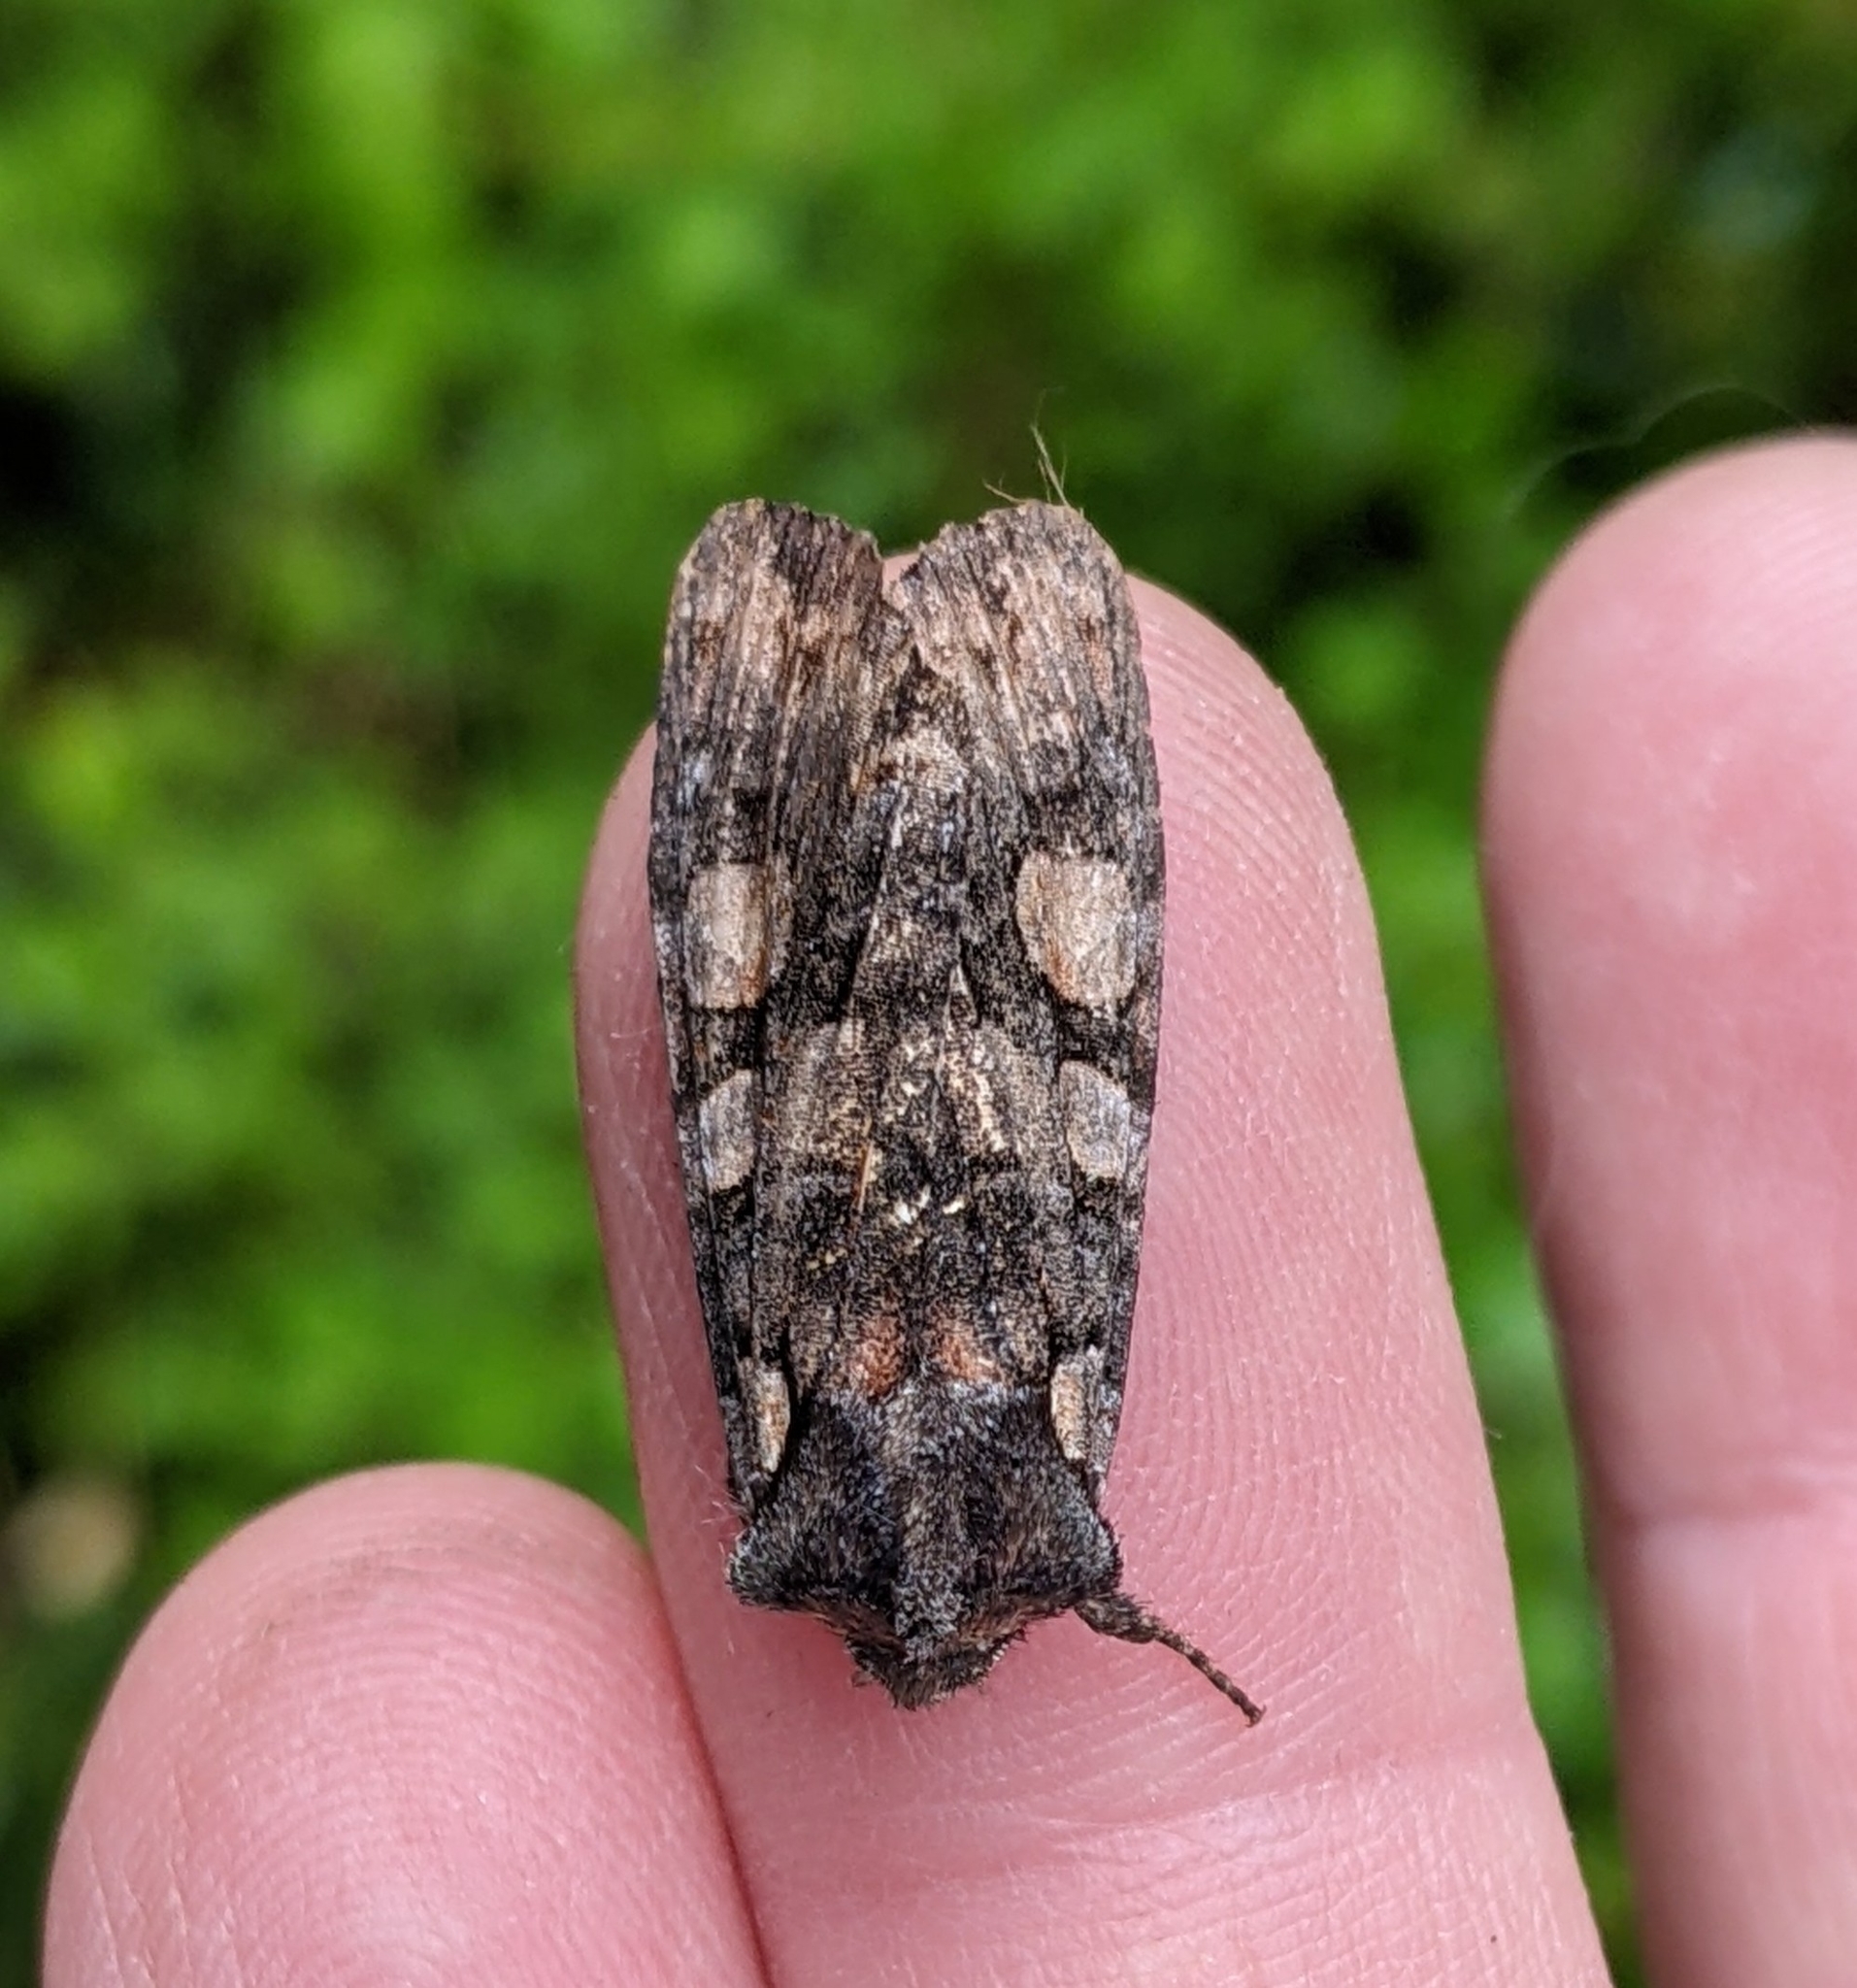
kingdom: Animalia
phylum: Arthropoda
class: Insecta
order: Lepidoptera
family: Noctuidae
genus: Lithophane
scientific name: Lithophane dilatocula
